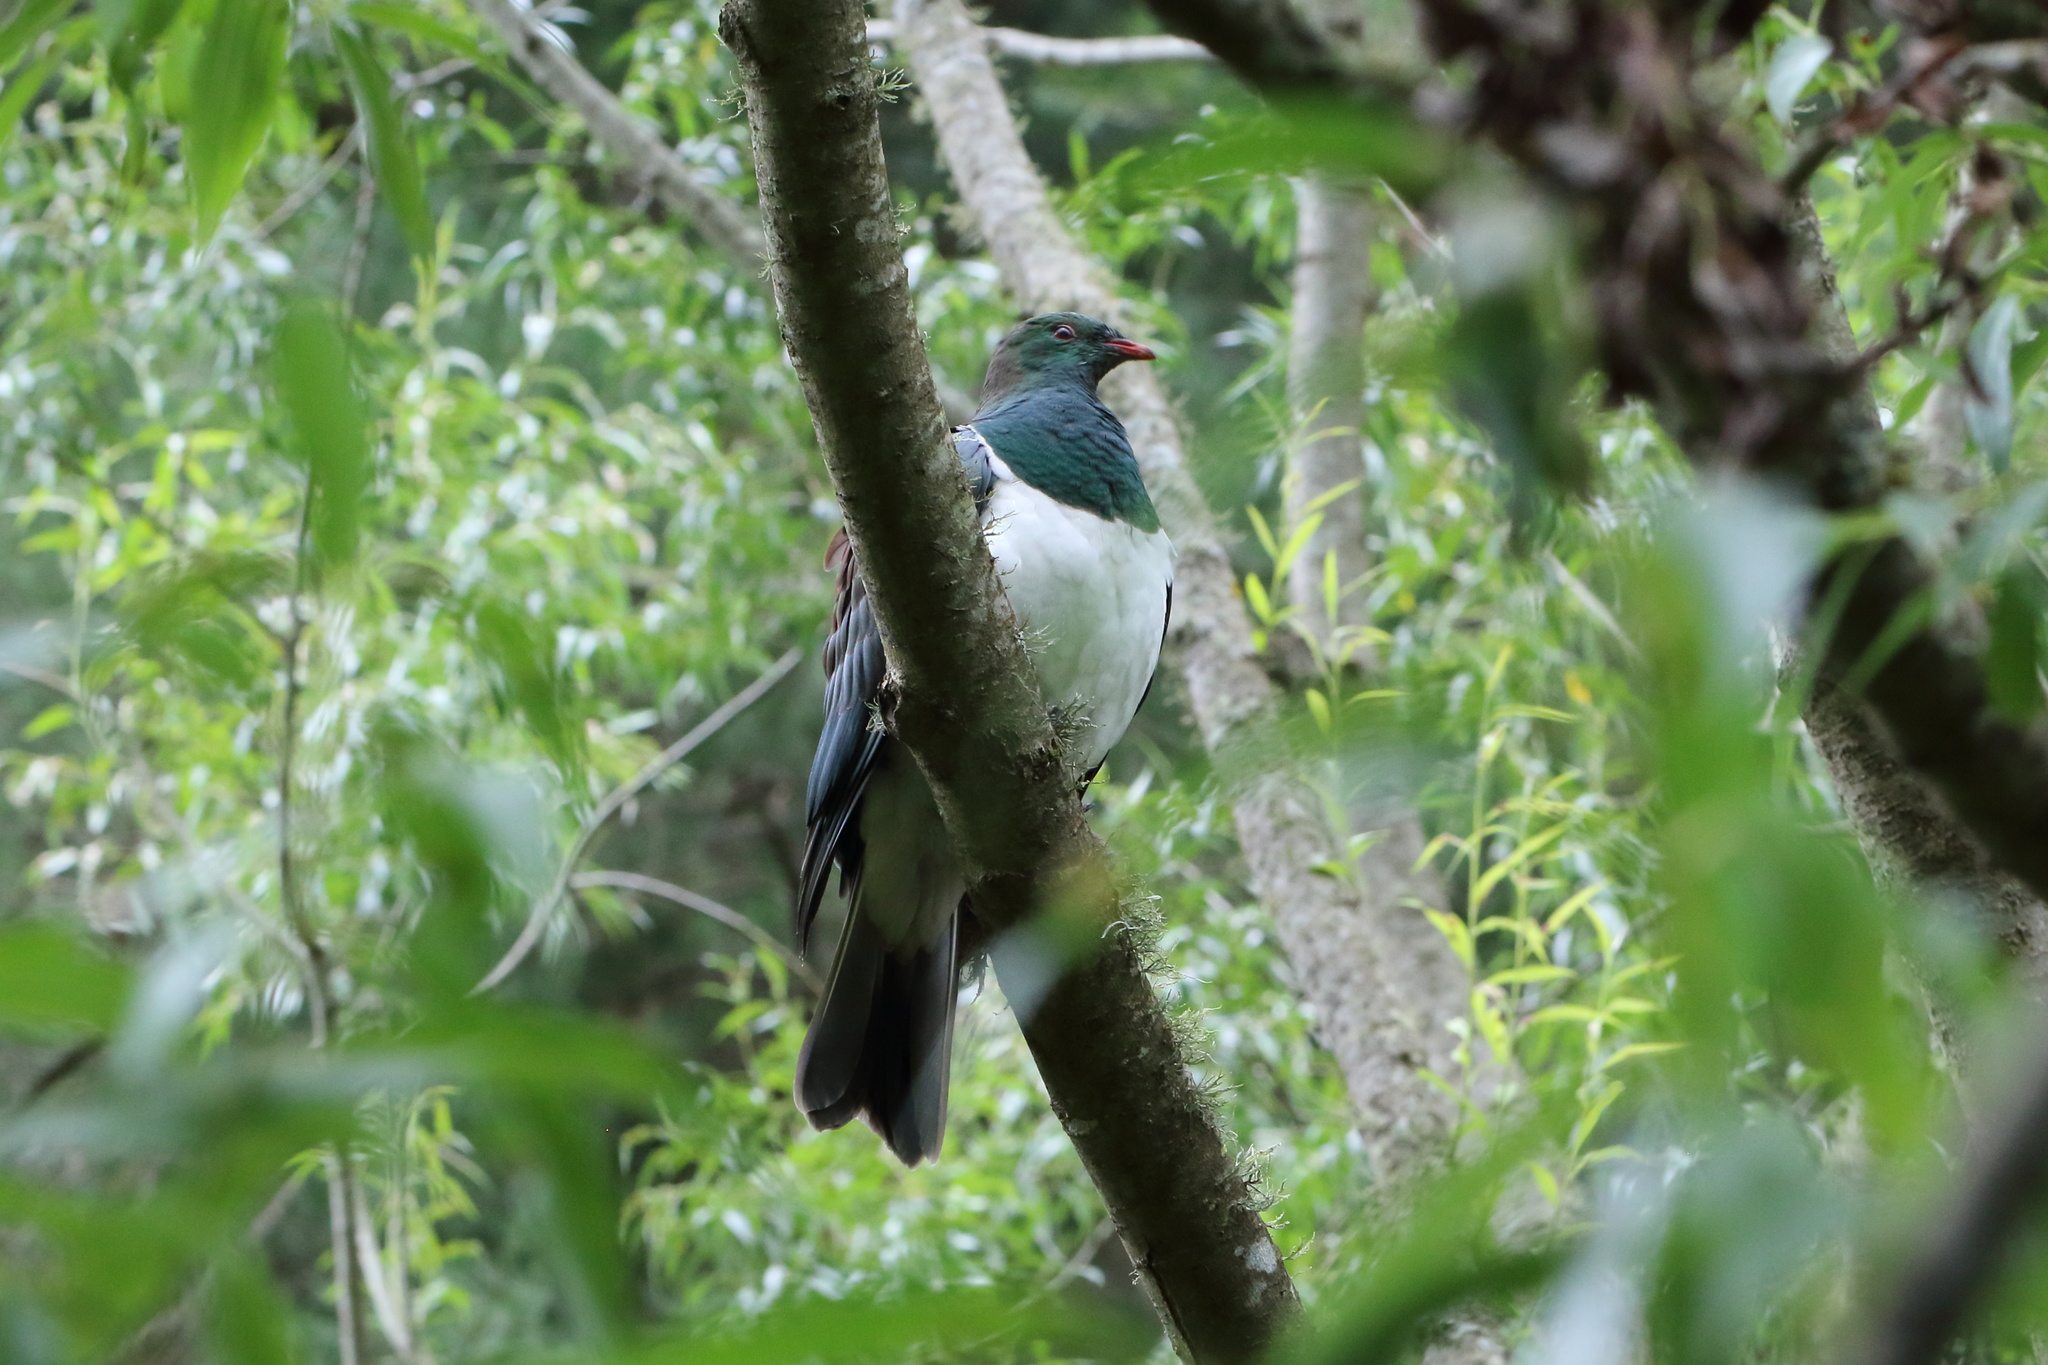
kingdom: Animalia
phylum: Chordata
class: Aves
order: Columbiformes
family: Columbidae
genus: Hemiphaga
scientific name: Hemiphaga novaeseelandiae
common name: New zealand pigeon
